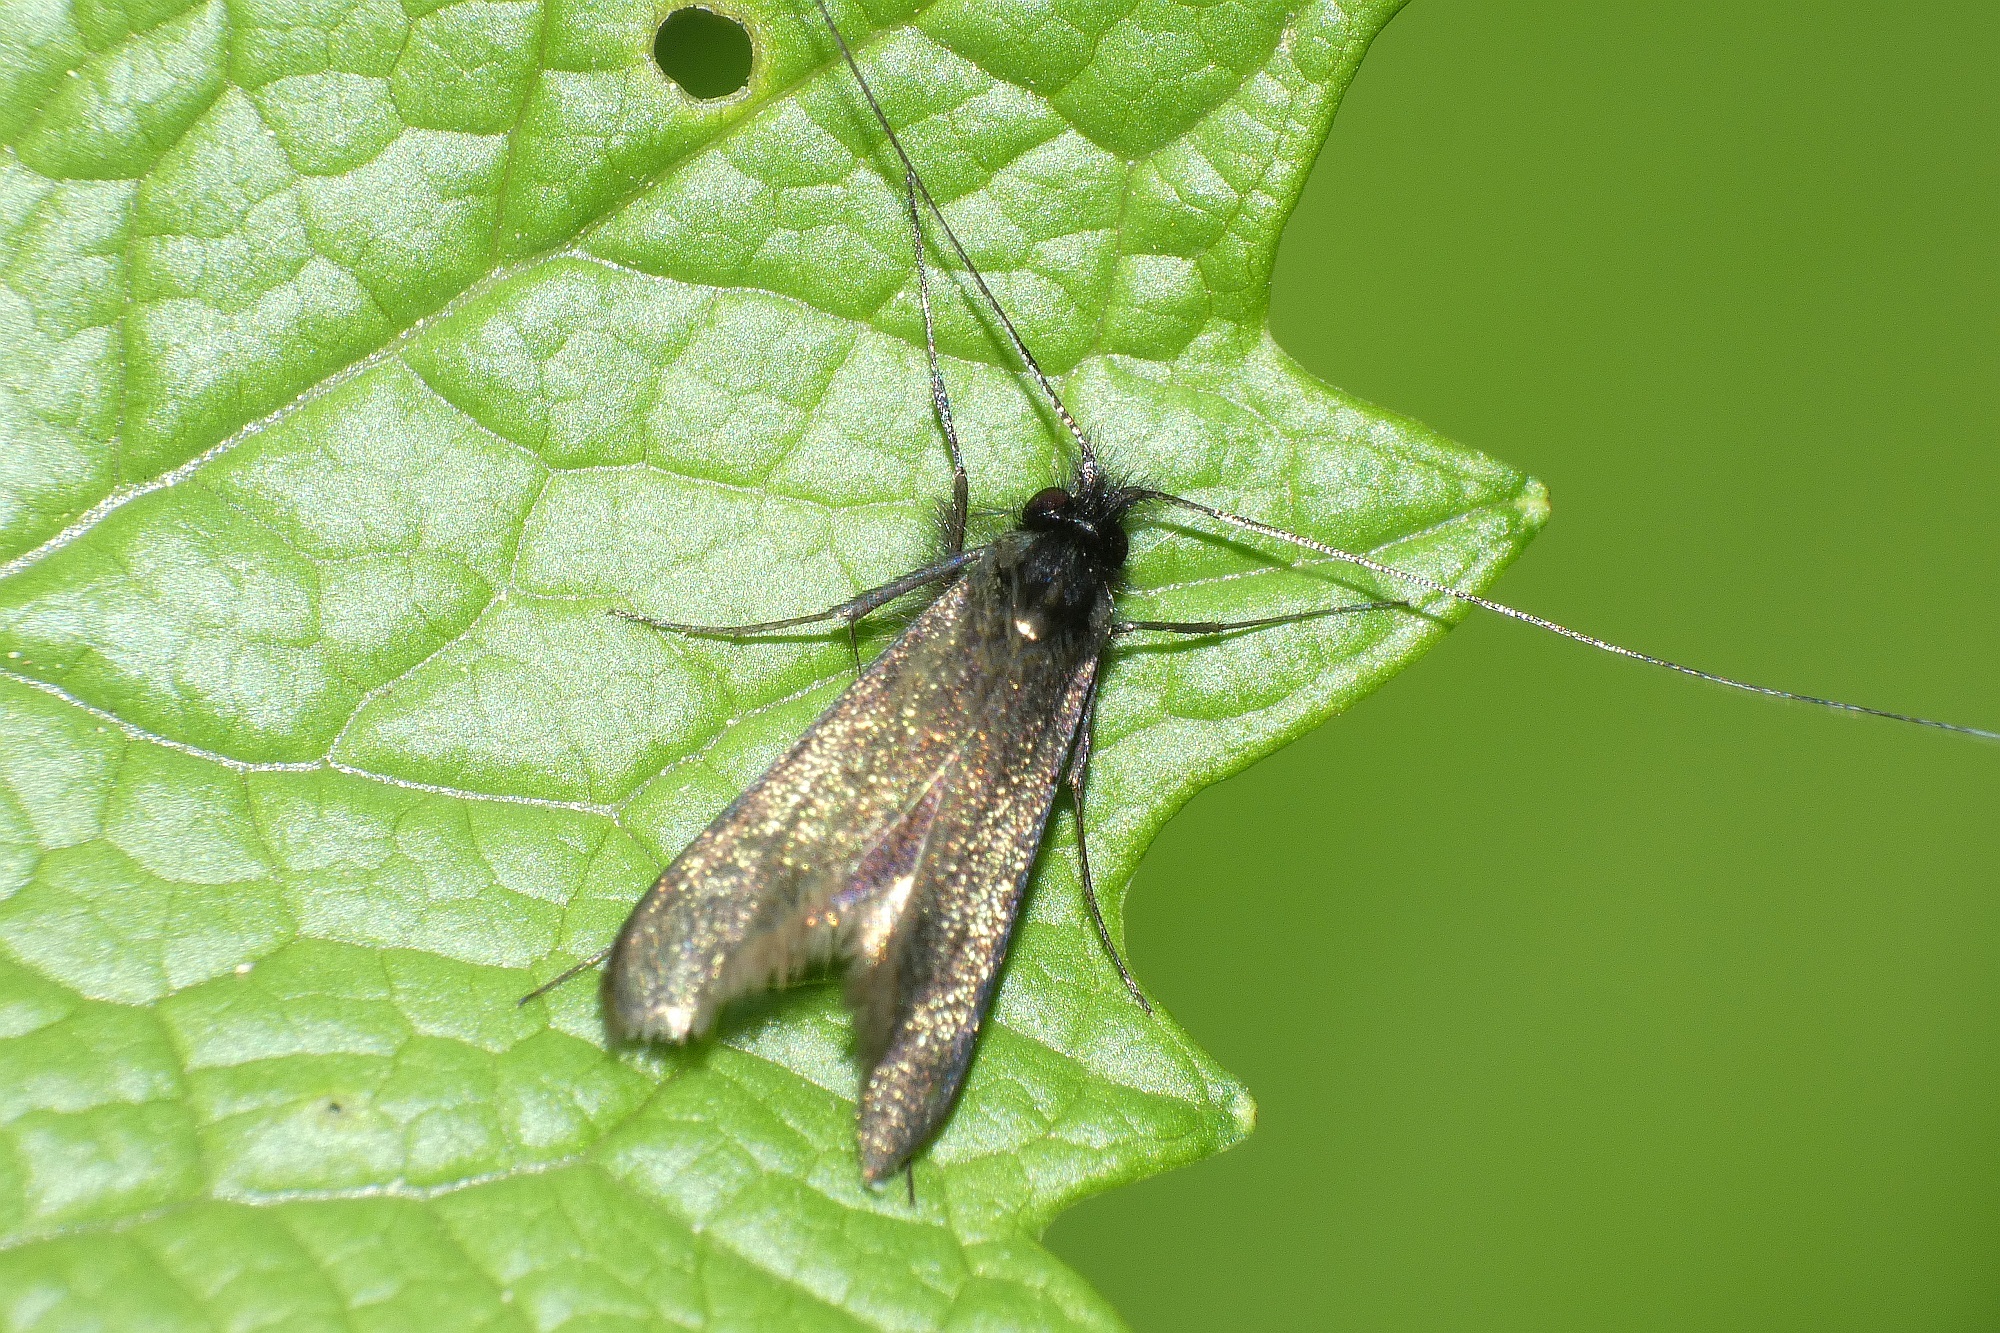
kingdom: Animalia
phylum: Arthropoda
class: Insecta
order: Lepidoptera
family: Adelidae
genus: Adela
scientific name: Adela viridella
